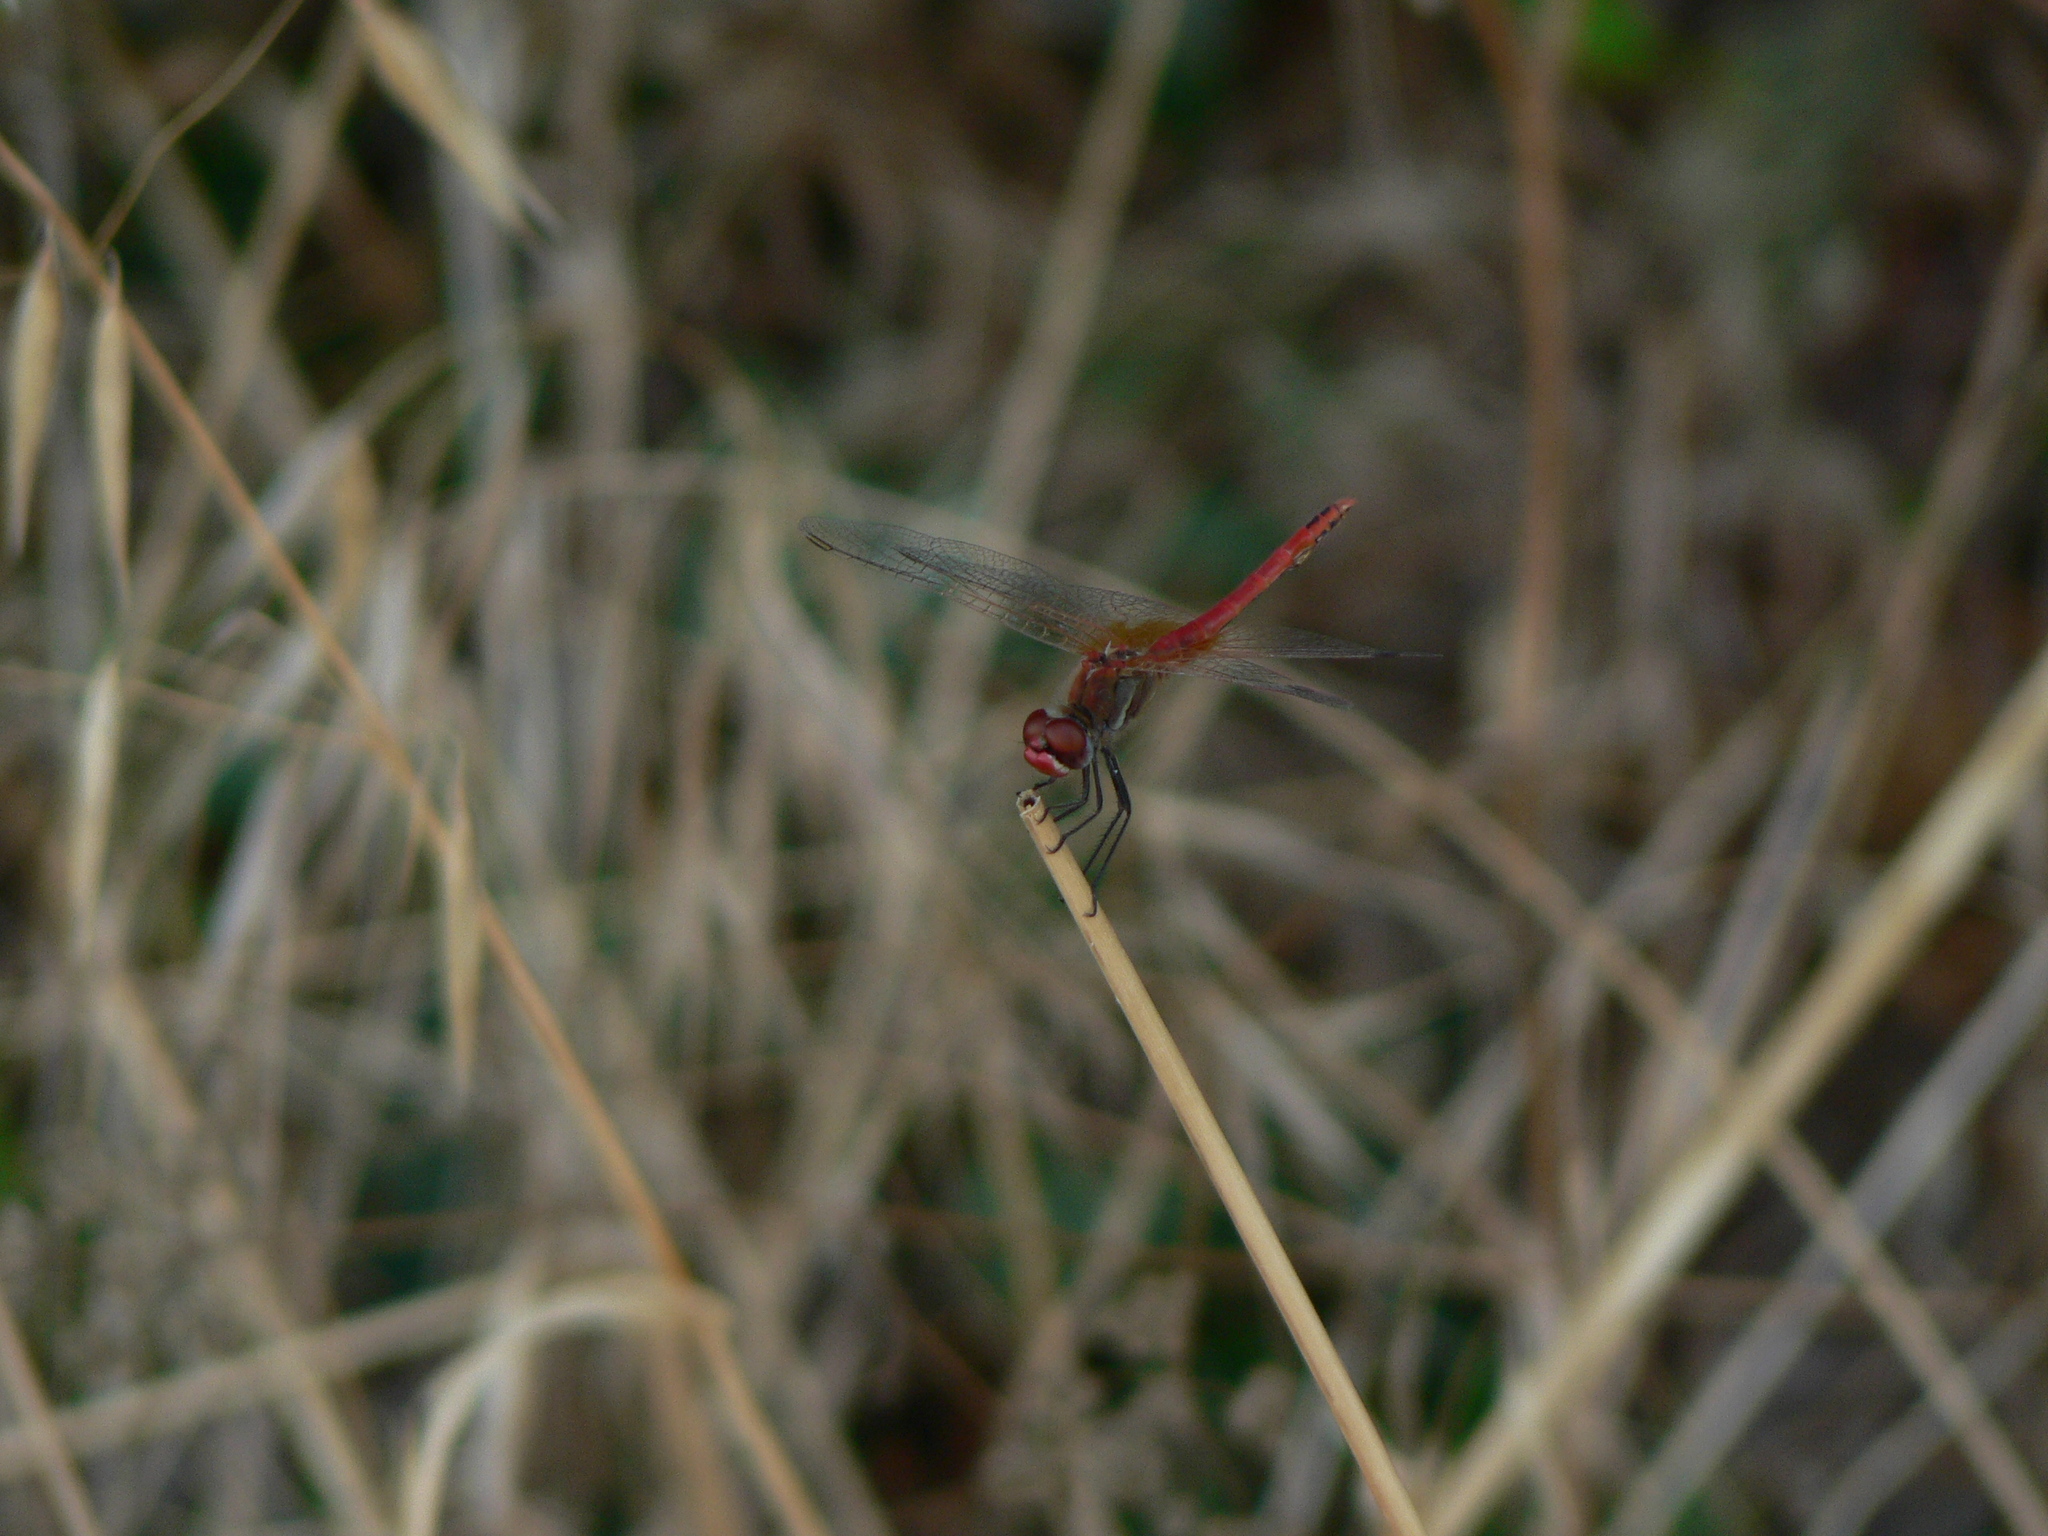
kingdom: Animalia
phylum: Arthropoda
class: Insecta
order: Odonata
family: Libellulidae
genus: Sympetrum
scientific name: Sympetrum fonscolombii
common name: Red-veined darter
